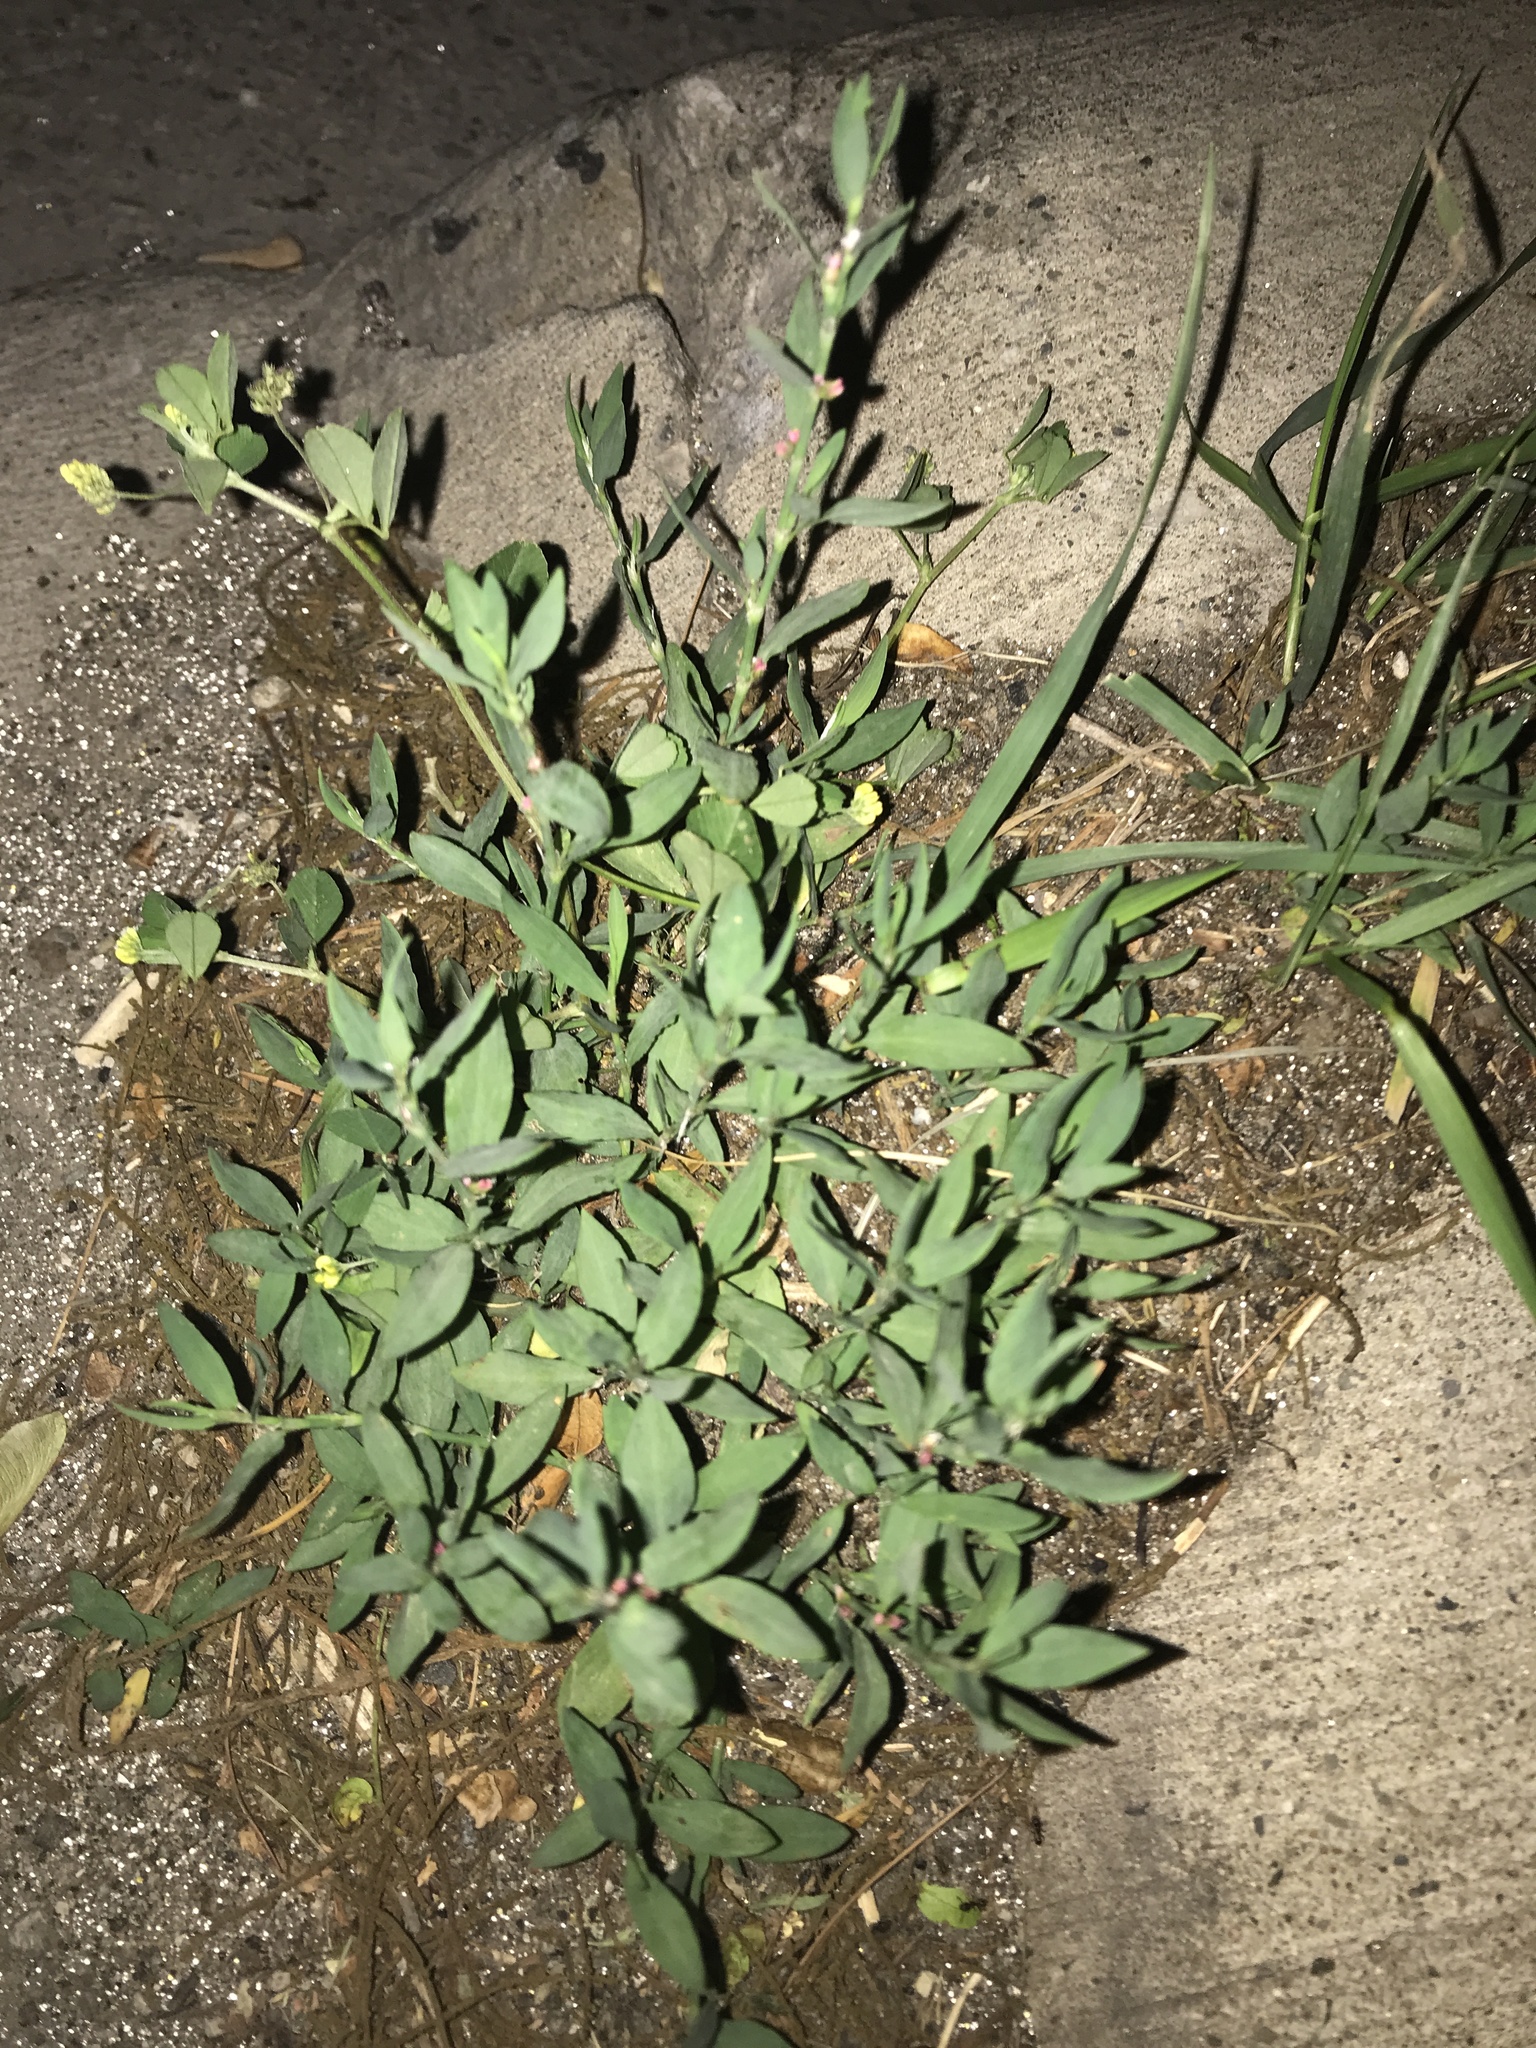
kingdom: Plantae
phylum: Tracheophyta
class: Magnoliopsida
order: Caryophyllales
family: Polygonaceae
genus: Polygonum
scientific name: Polygonum aviculare
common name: Prostrate knotweed
